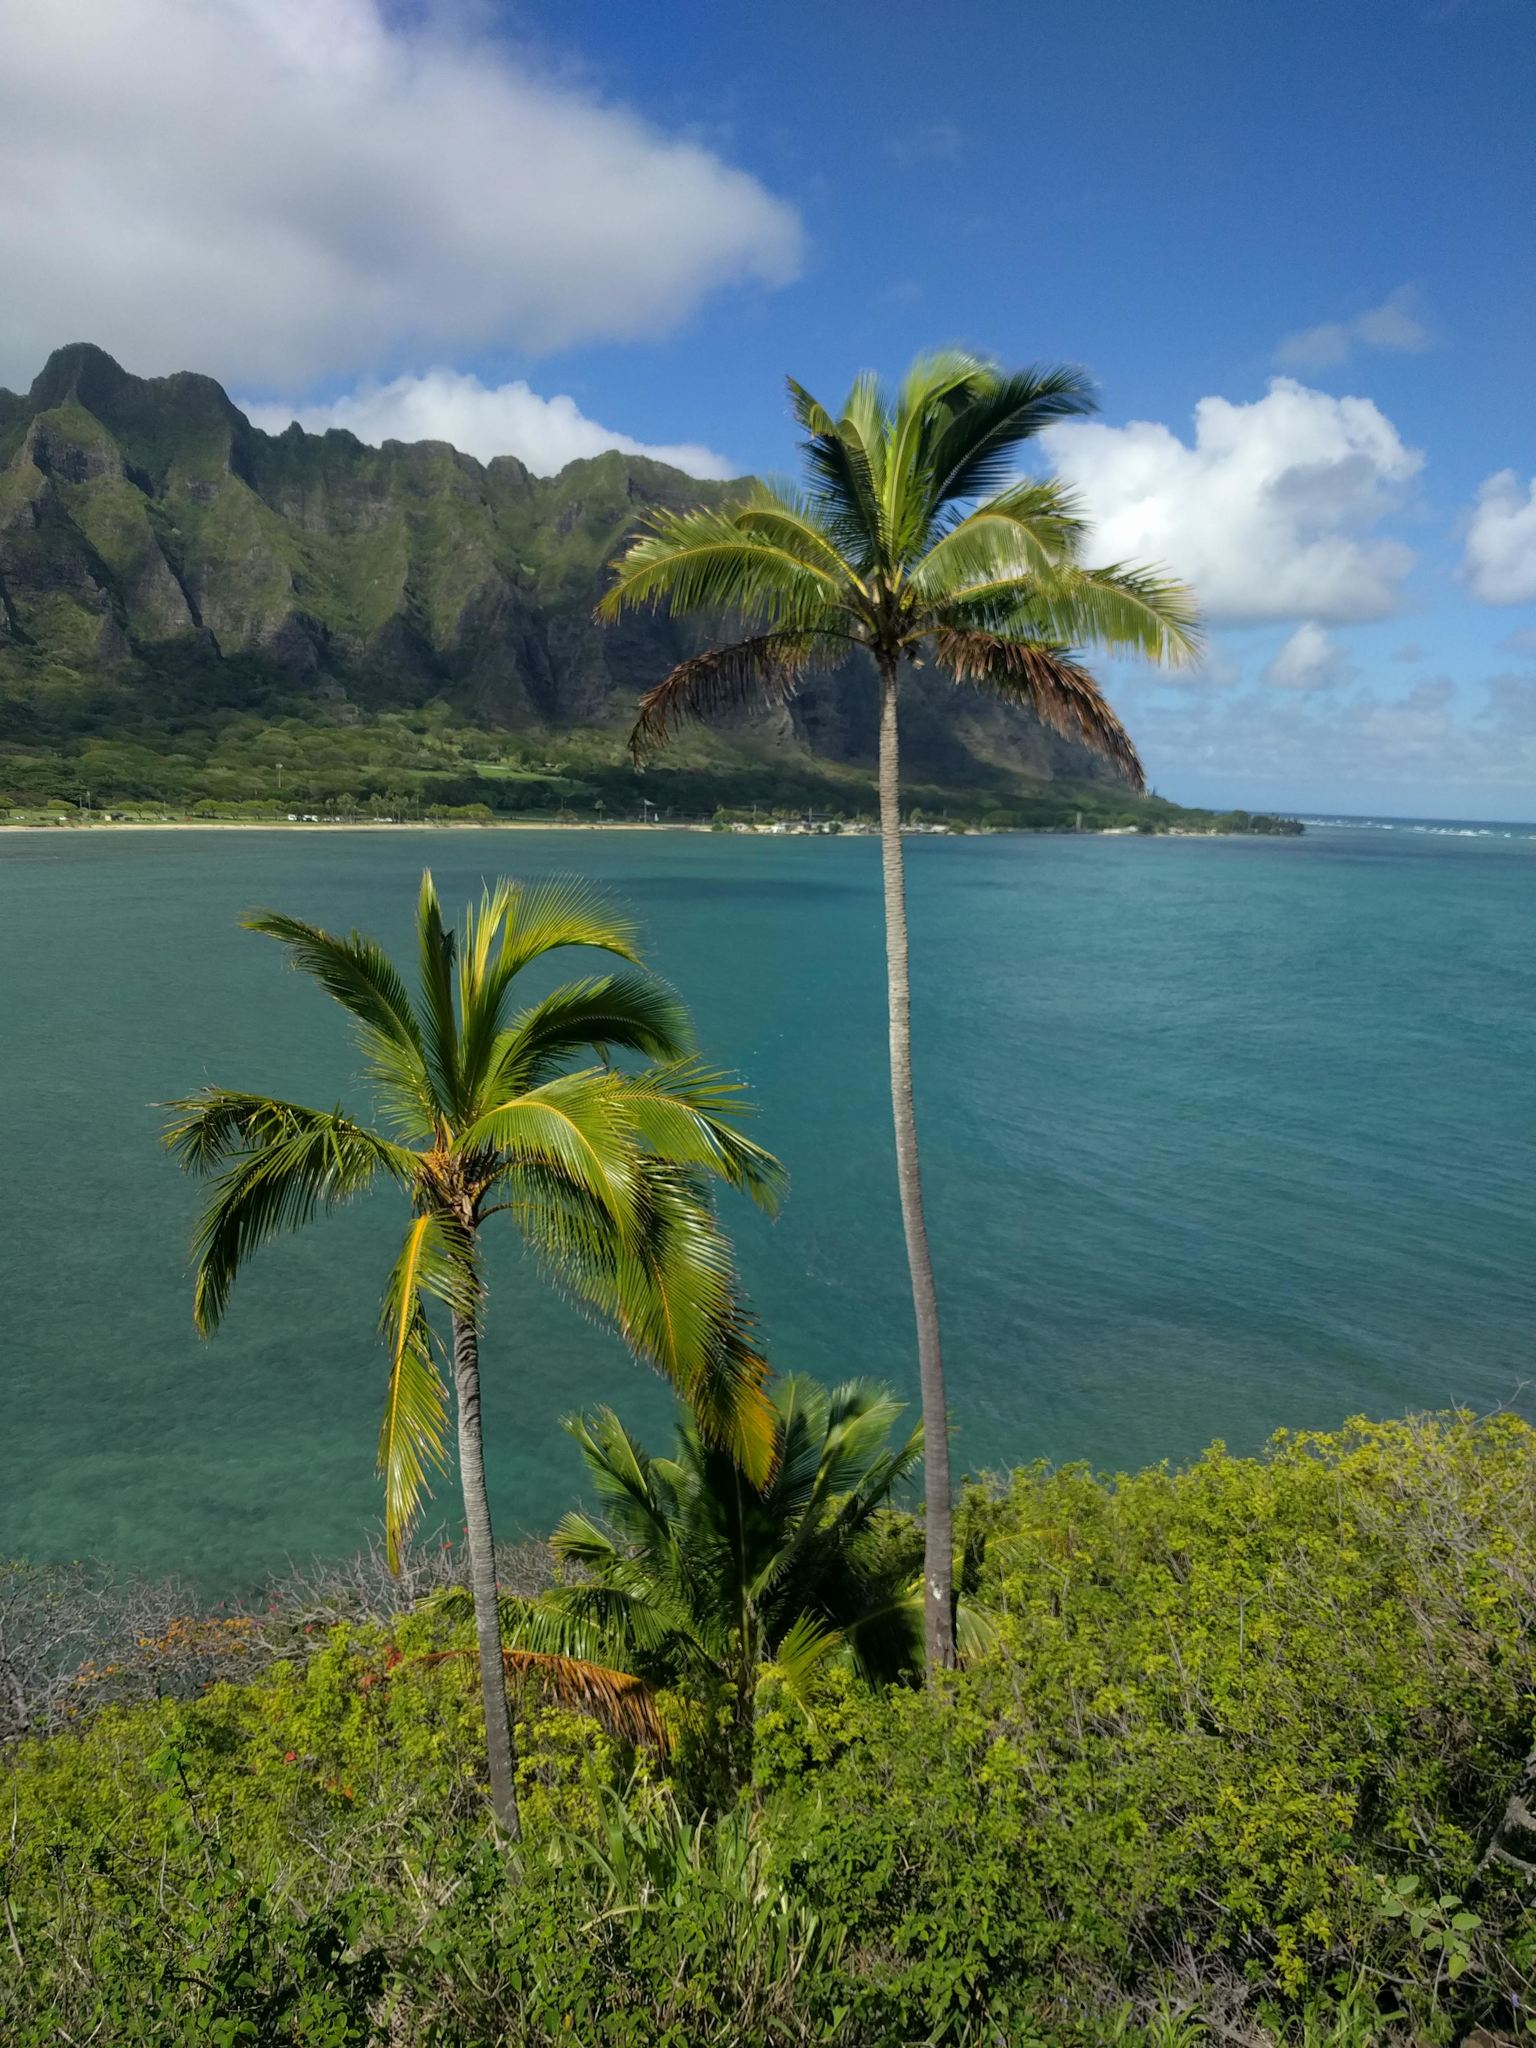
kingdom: Plantae
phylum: Tracheophyta
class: Liliopsida
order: Arecales
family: Arecaceae
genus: Cocos
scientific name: Cocos nucifera
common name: Coconut palm
